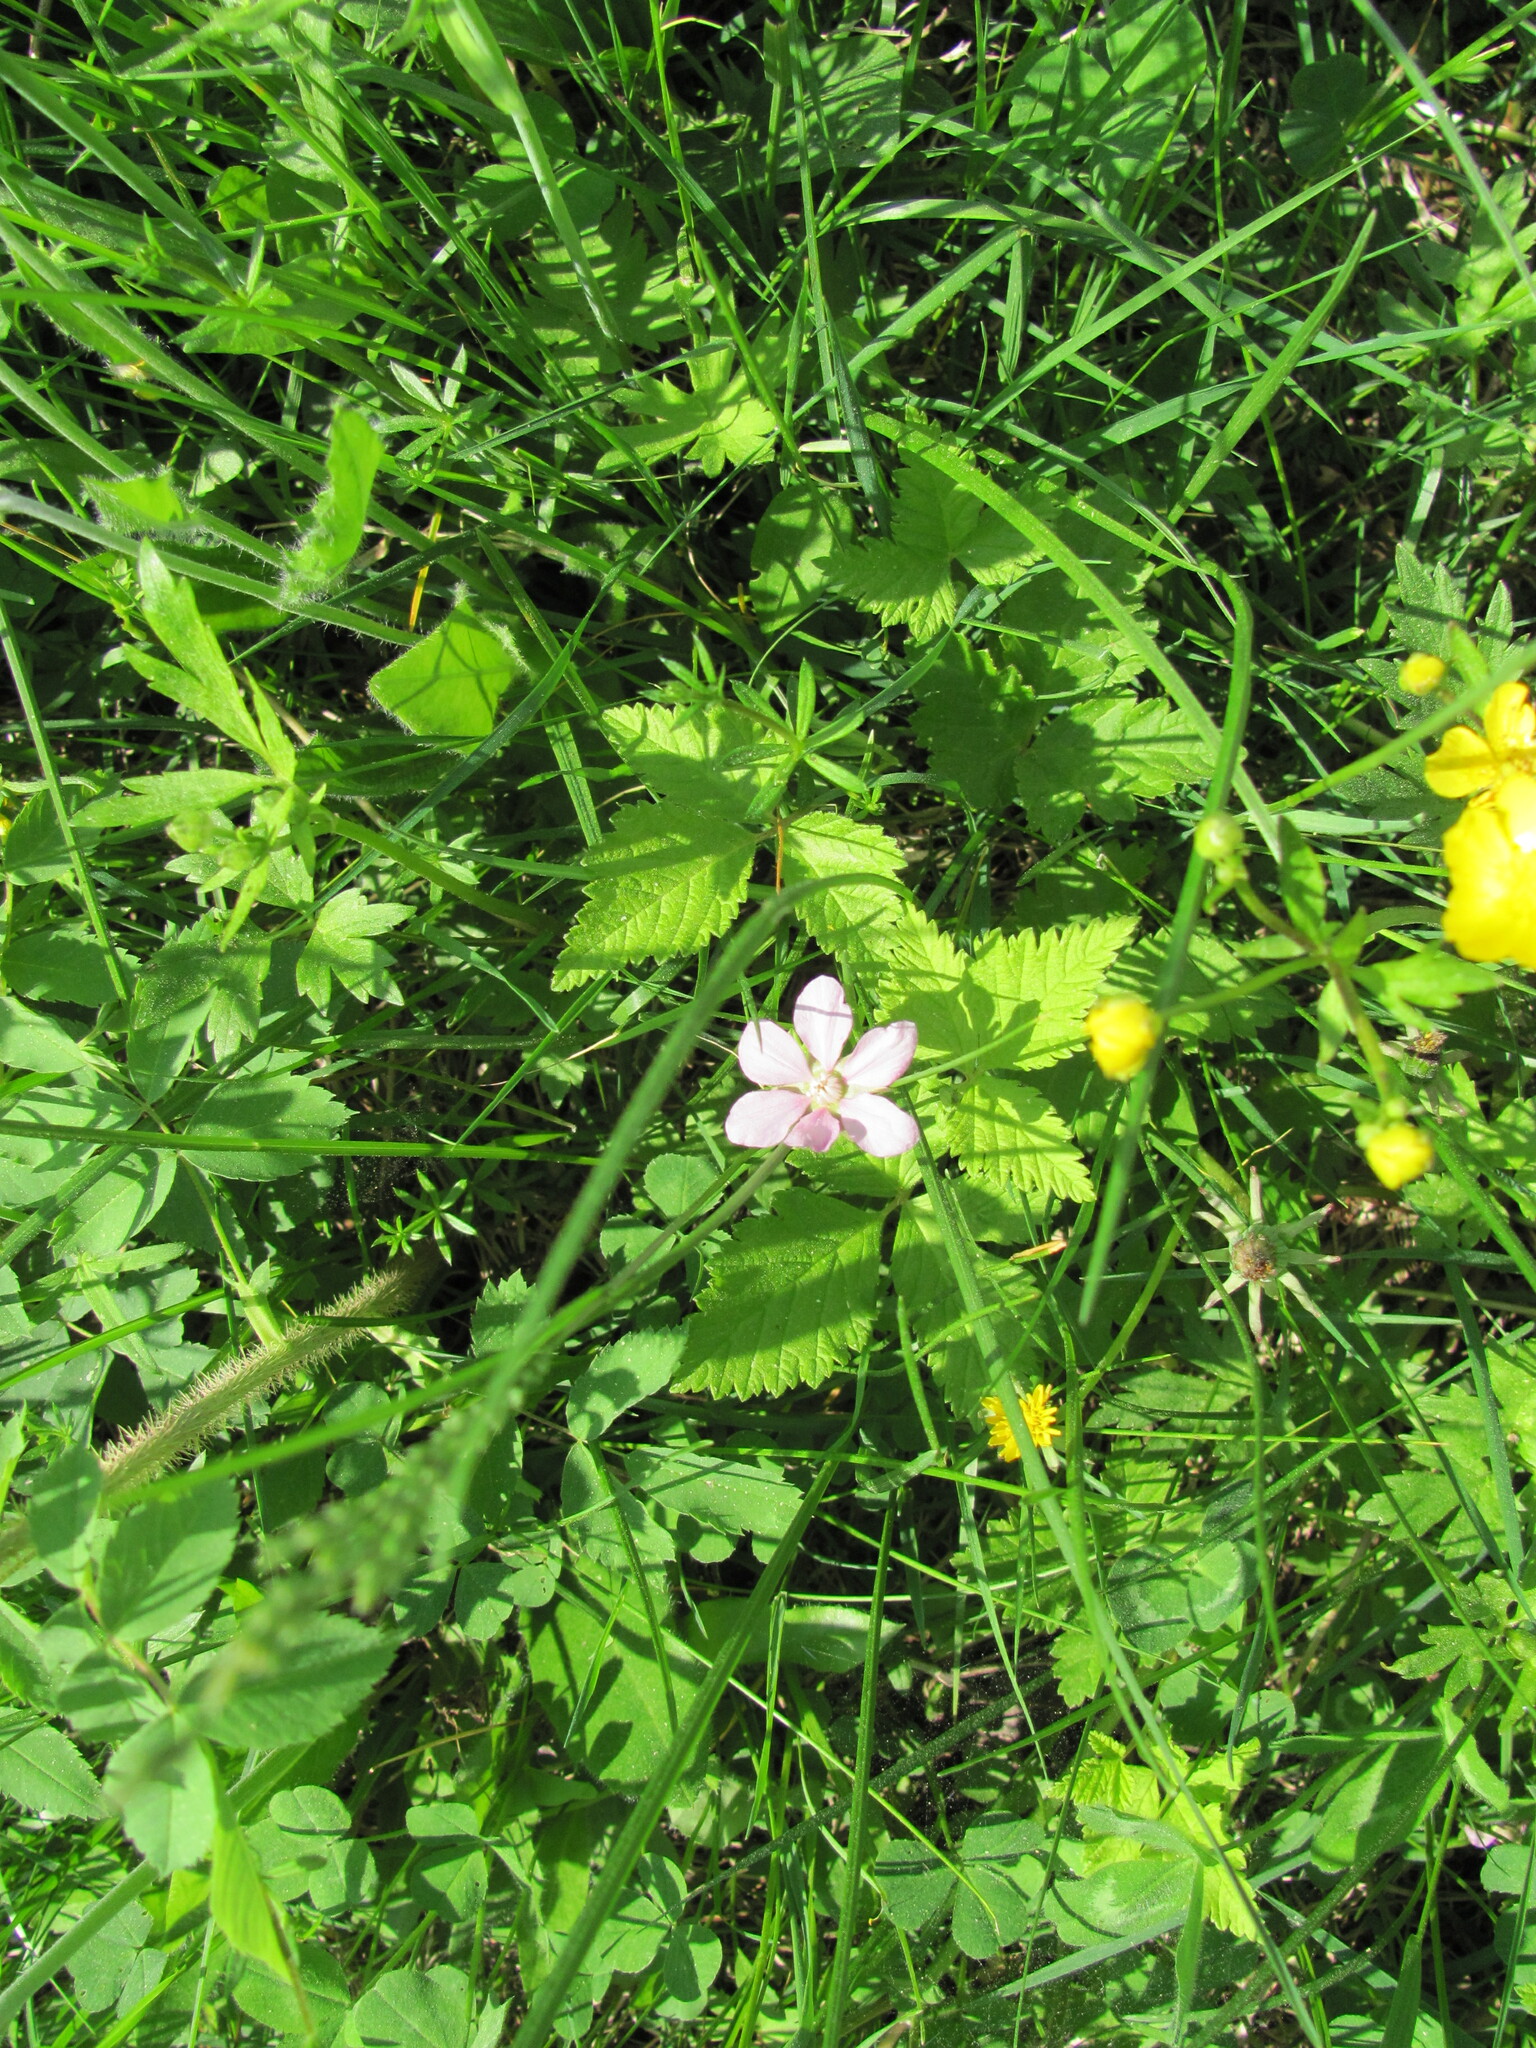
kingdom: Plantae
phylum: Tracheophyta
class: Magnoliopsida
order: Rosales
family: Rosaceae
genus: Rubus
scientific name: Rubus arcticus
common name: Arctic bramble
